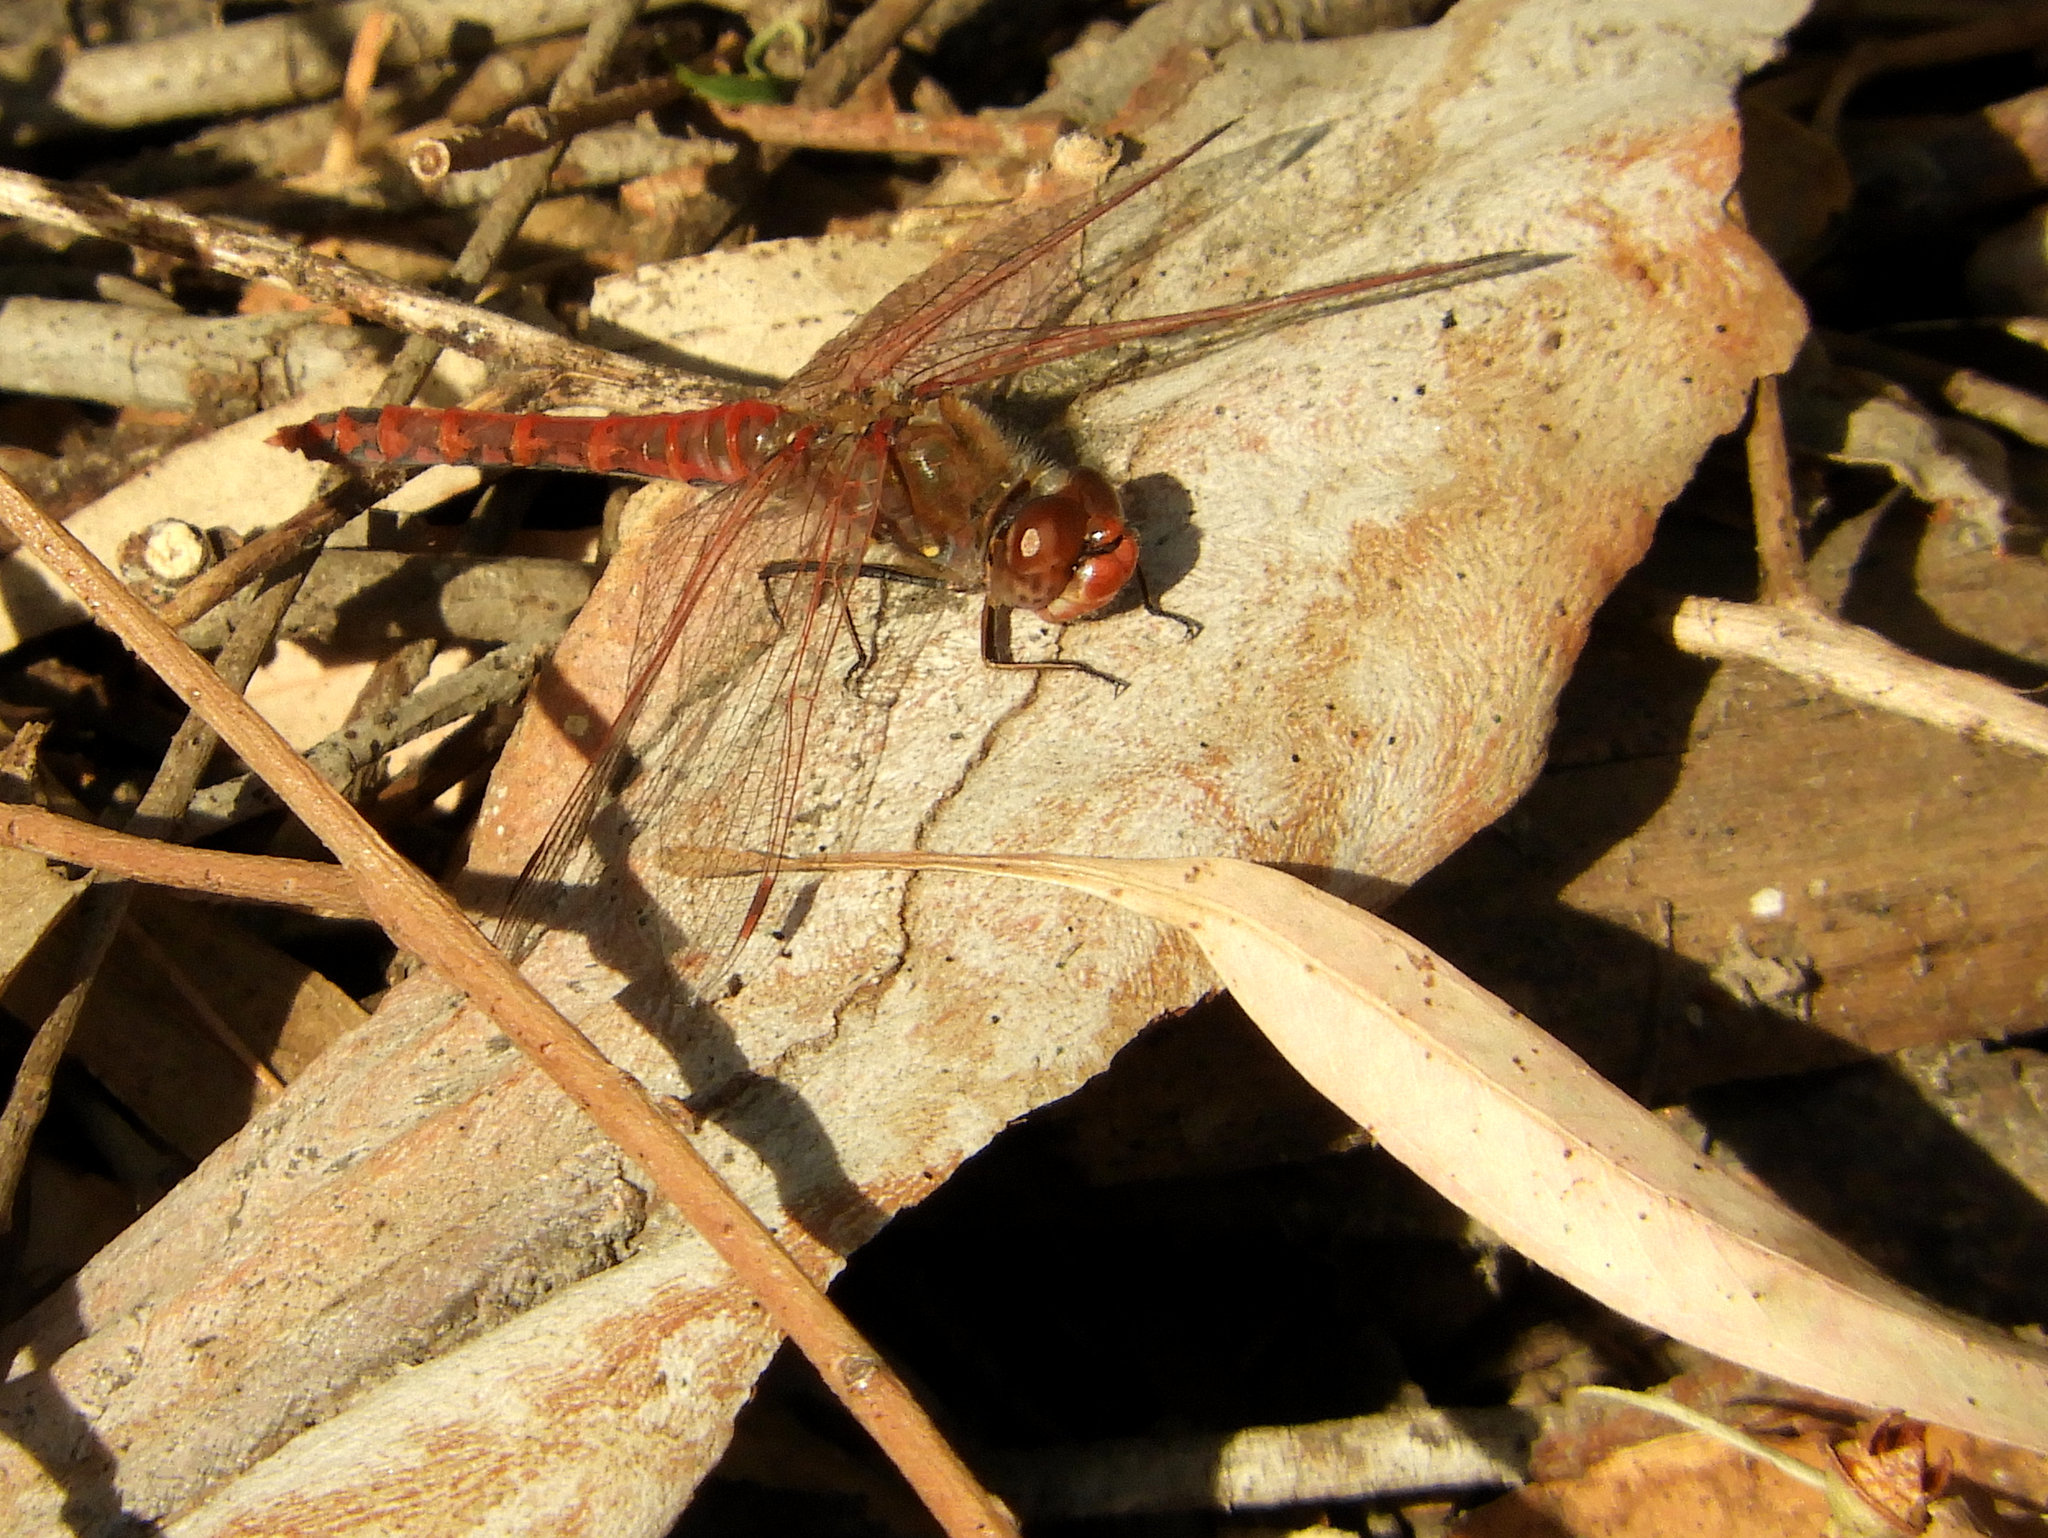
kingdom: Animalia
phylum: Arthropoda
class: Insecta
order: Odonata
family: Libellulidae
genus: Sympetrum
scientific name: Sympetrum corruptum
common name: Variegated meadowhawk
